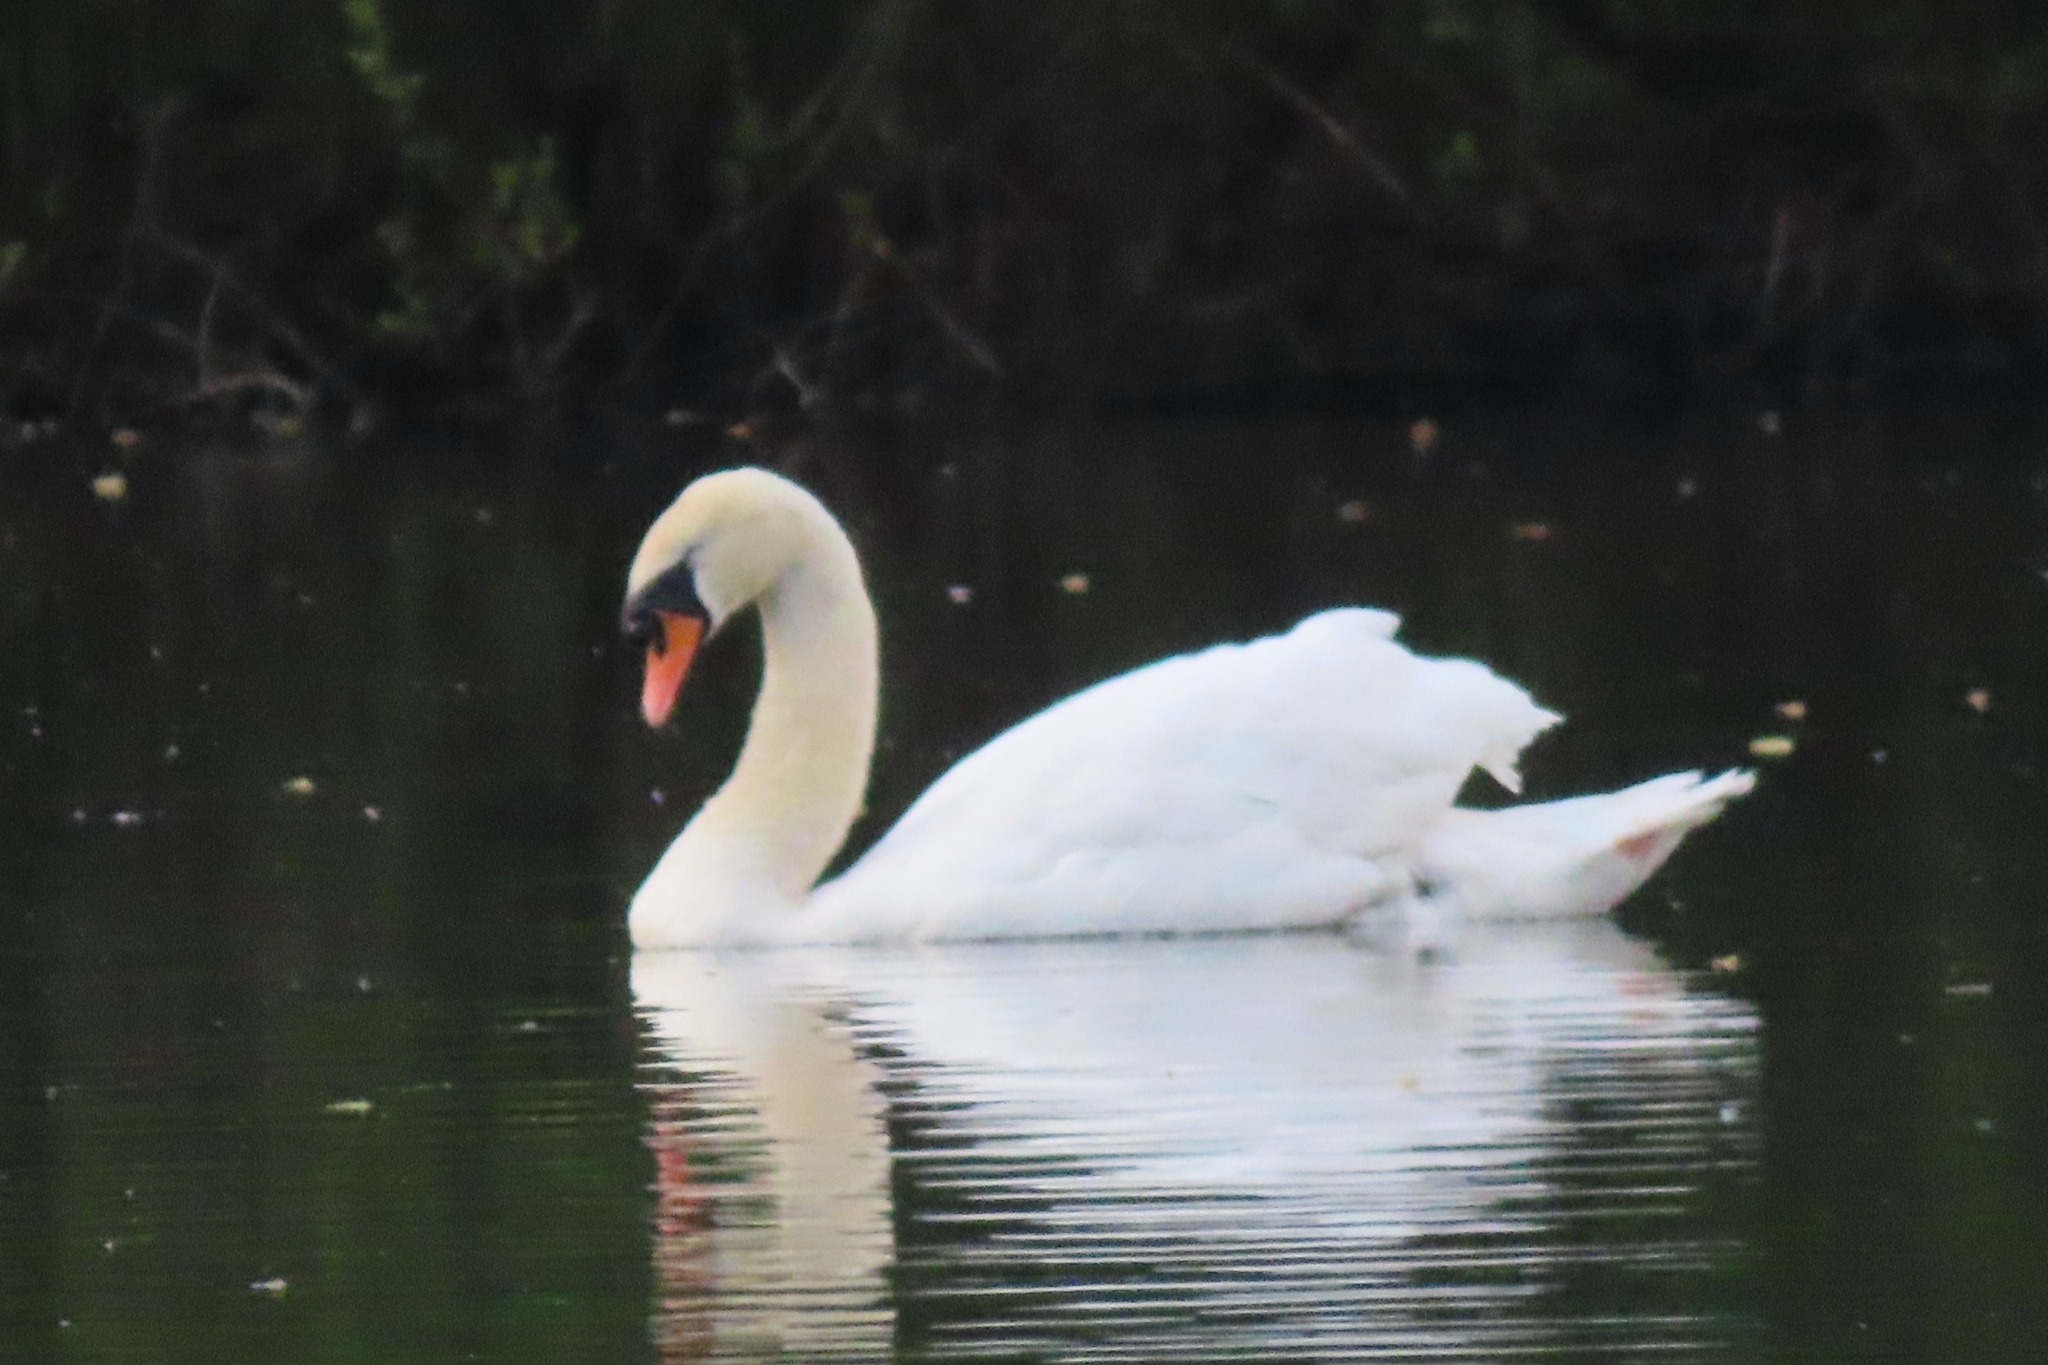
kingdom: Animalia
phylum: Chordata
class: Aves
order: Anseriformes
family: Anatidae
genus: Cygnus
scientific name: Cygnus olor
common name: Mute swan
